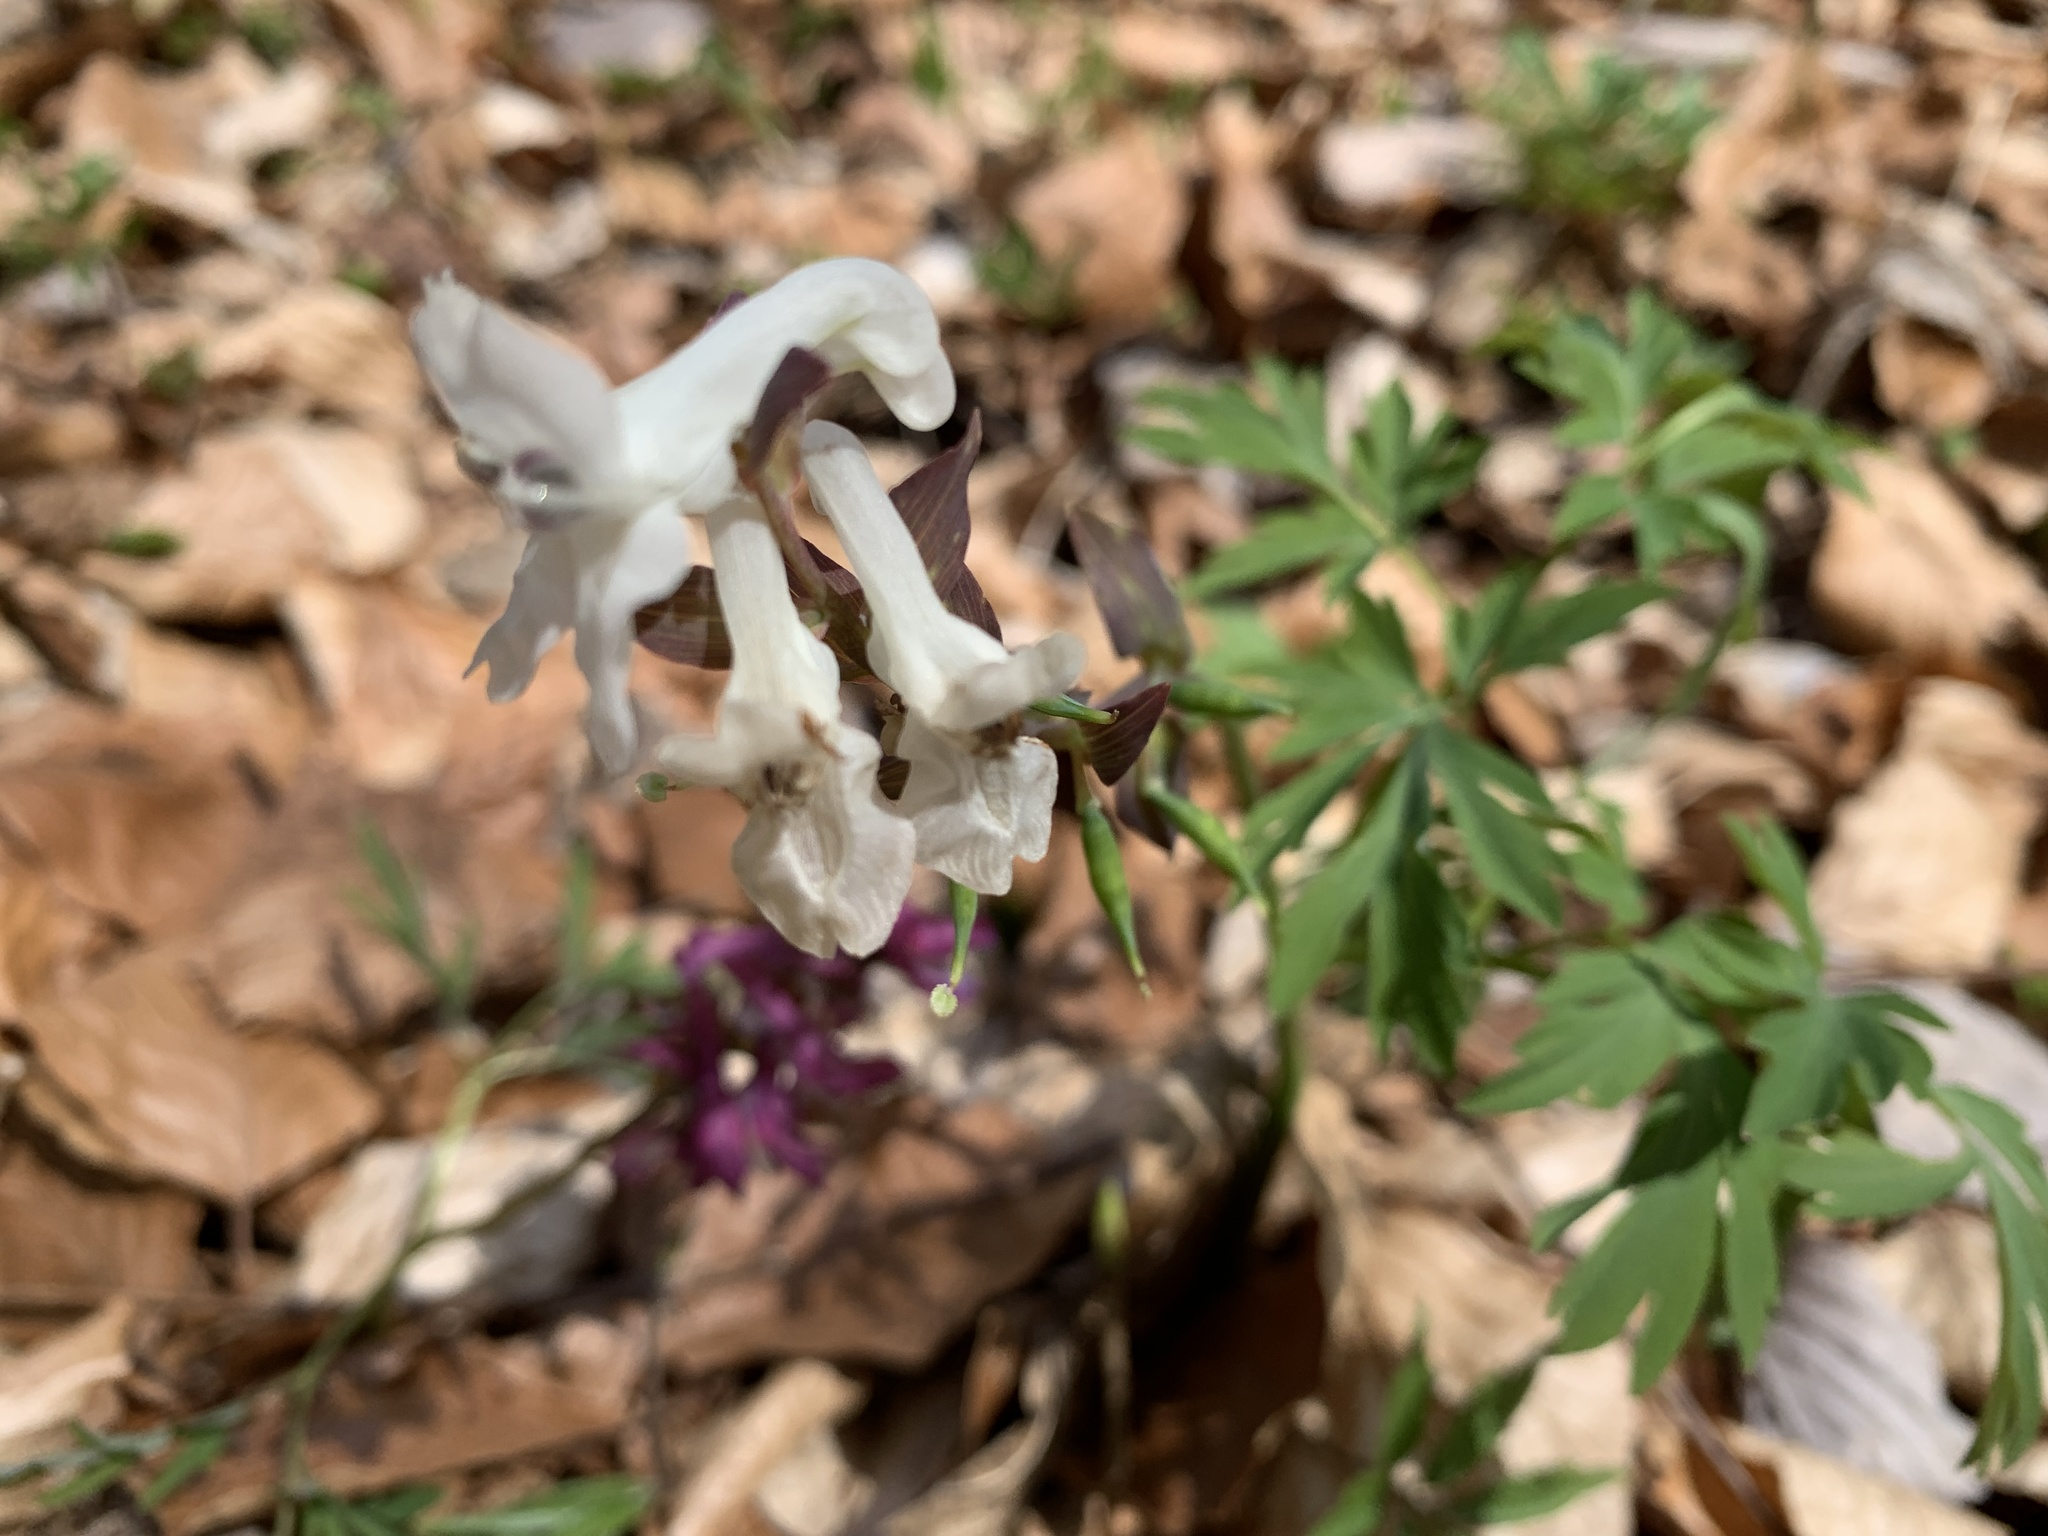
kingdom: Plantae
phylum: Tracheophyta
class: Magnoliopsida
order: Ranunculales
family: Papaveraceae
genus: Corydalis
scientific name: Corydalis cava
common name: Hollowroot
